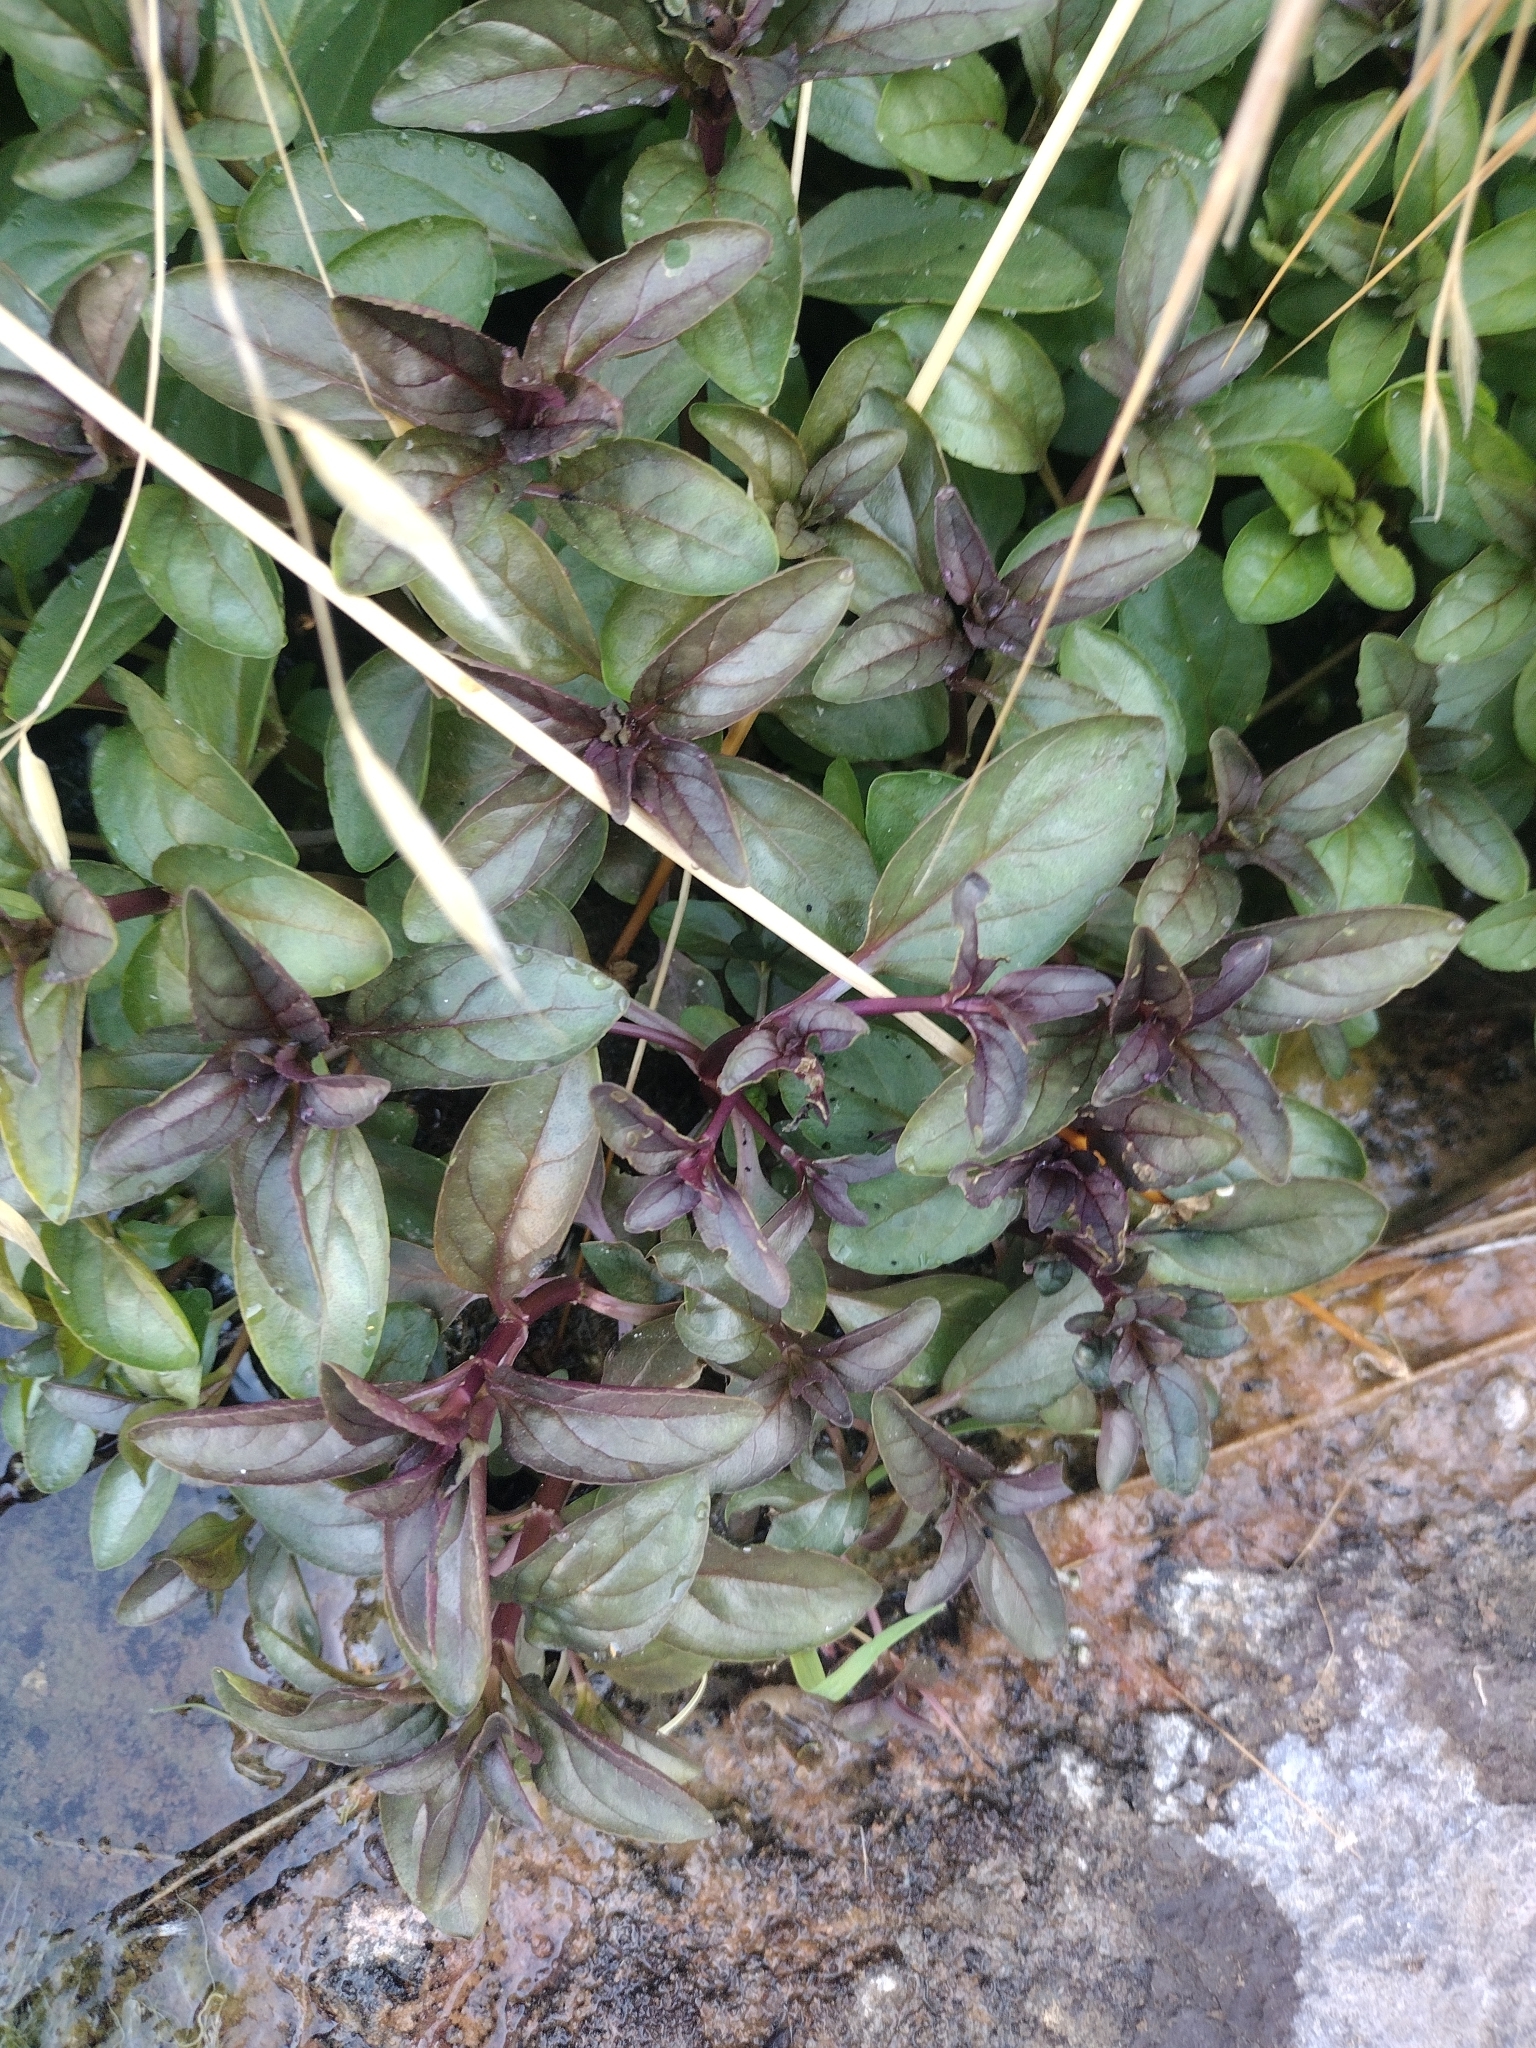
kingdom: Plantae
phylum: Tracheophyta
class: Magnoliopsida
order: Lamiales
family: Plantaginaceae
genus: Veronica
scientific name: Veronica anagallis-aquatica
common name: Water speedwell
